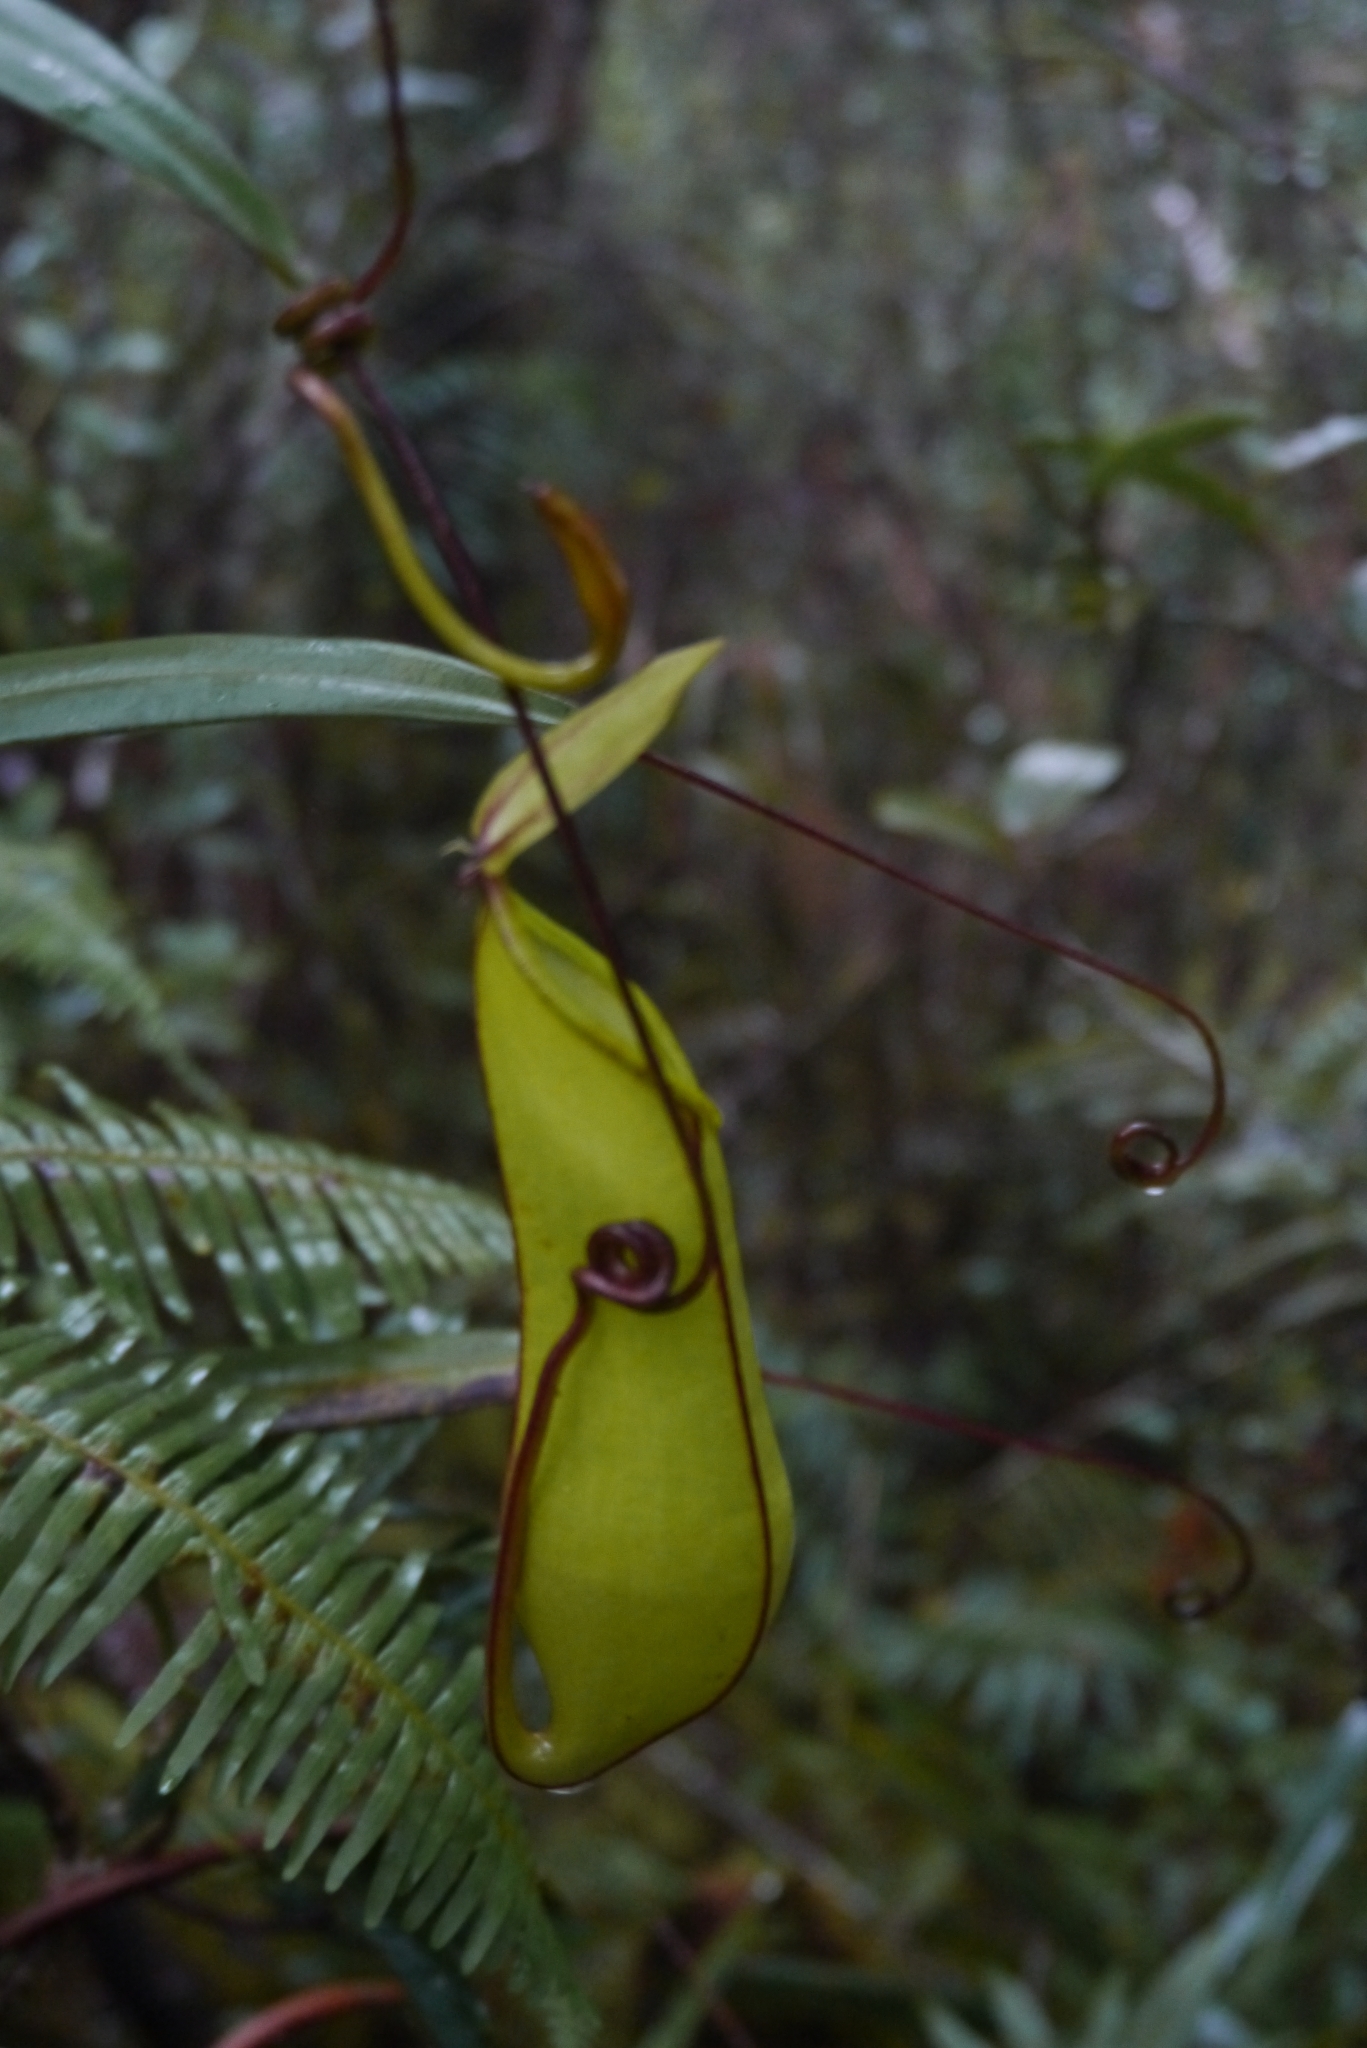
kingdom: Plantae
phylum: Tracheophyta
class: Magnoliopsida
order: Caryophyllales
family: Nepenthaceae
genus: Nepenthes
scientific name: Nepenthes tentaculata
